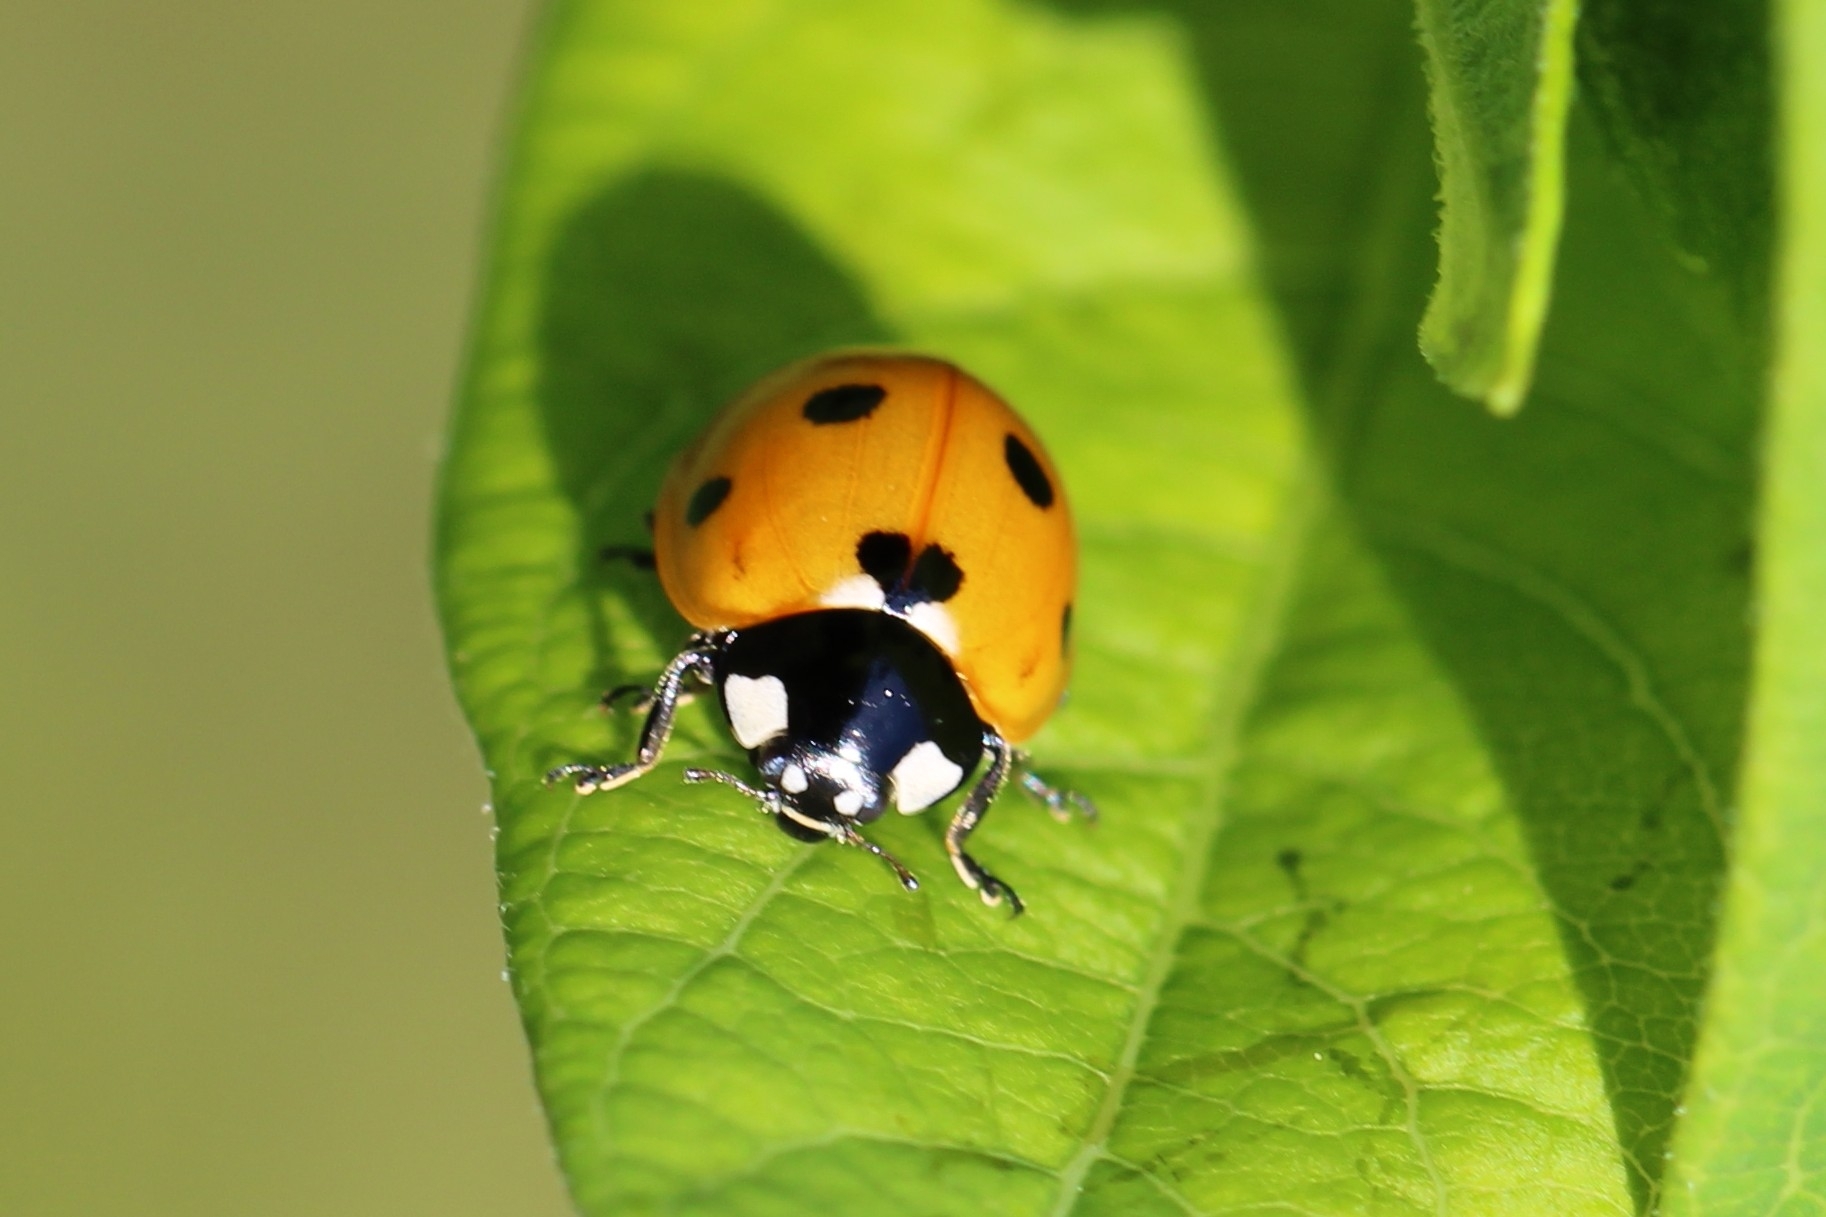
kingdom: Animalia
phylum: Arthropoda
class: Insecta
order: Coleoptera
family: Coccinellidae
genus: Coccinella
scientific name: Coccinella septempunctata
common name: Sevenspotted lady beetle
